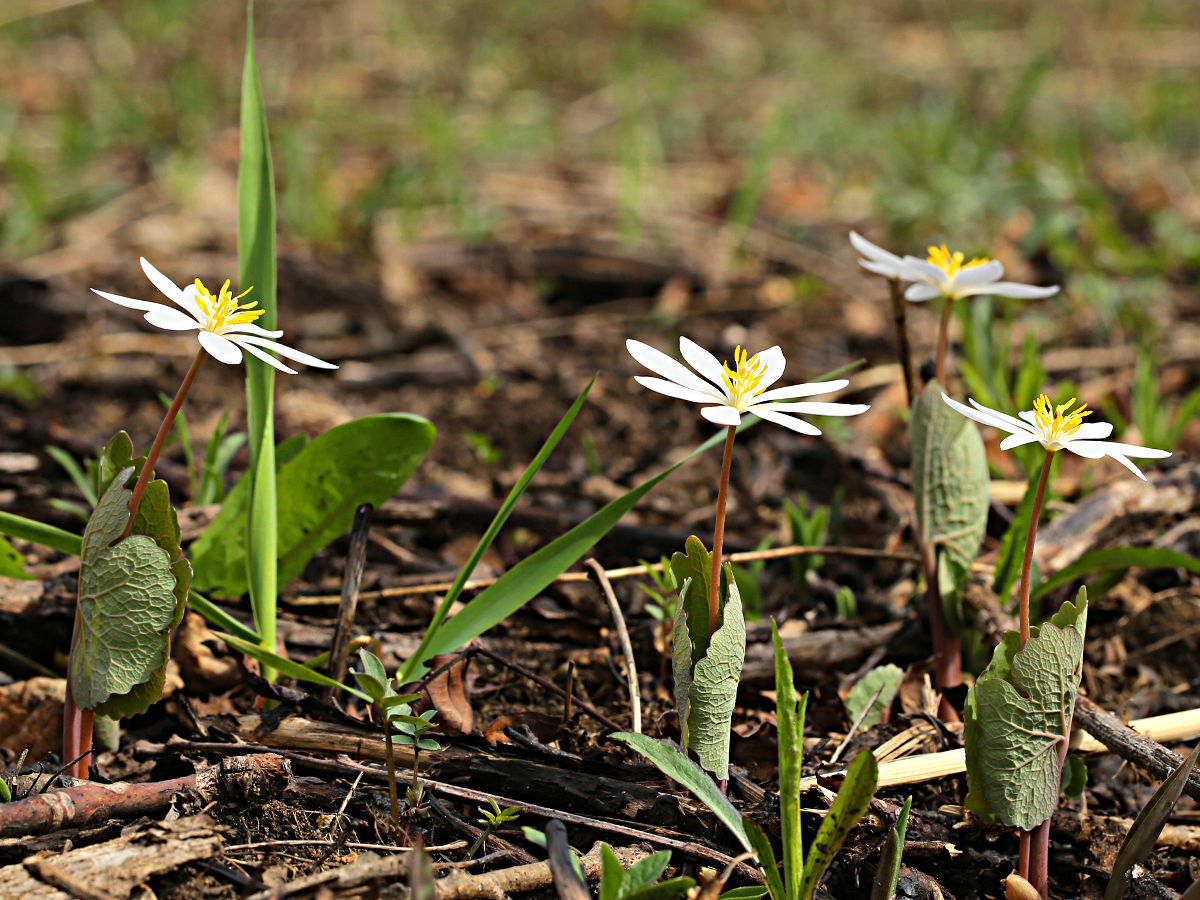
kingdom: Plantae
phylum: Tracheophyta
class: Magnoliopsida
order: Ranunculales
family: Papaveraceae
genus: Sanguinaria
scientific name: Sanguinaria canadensis
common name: Bloodroot
